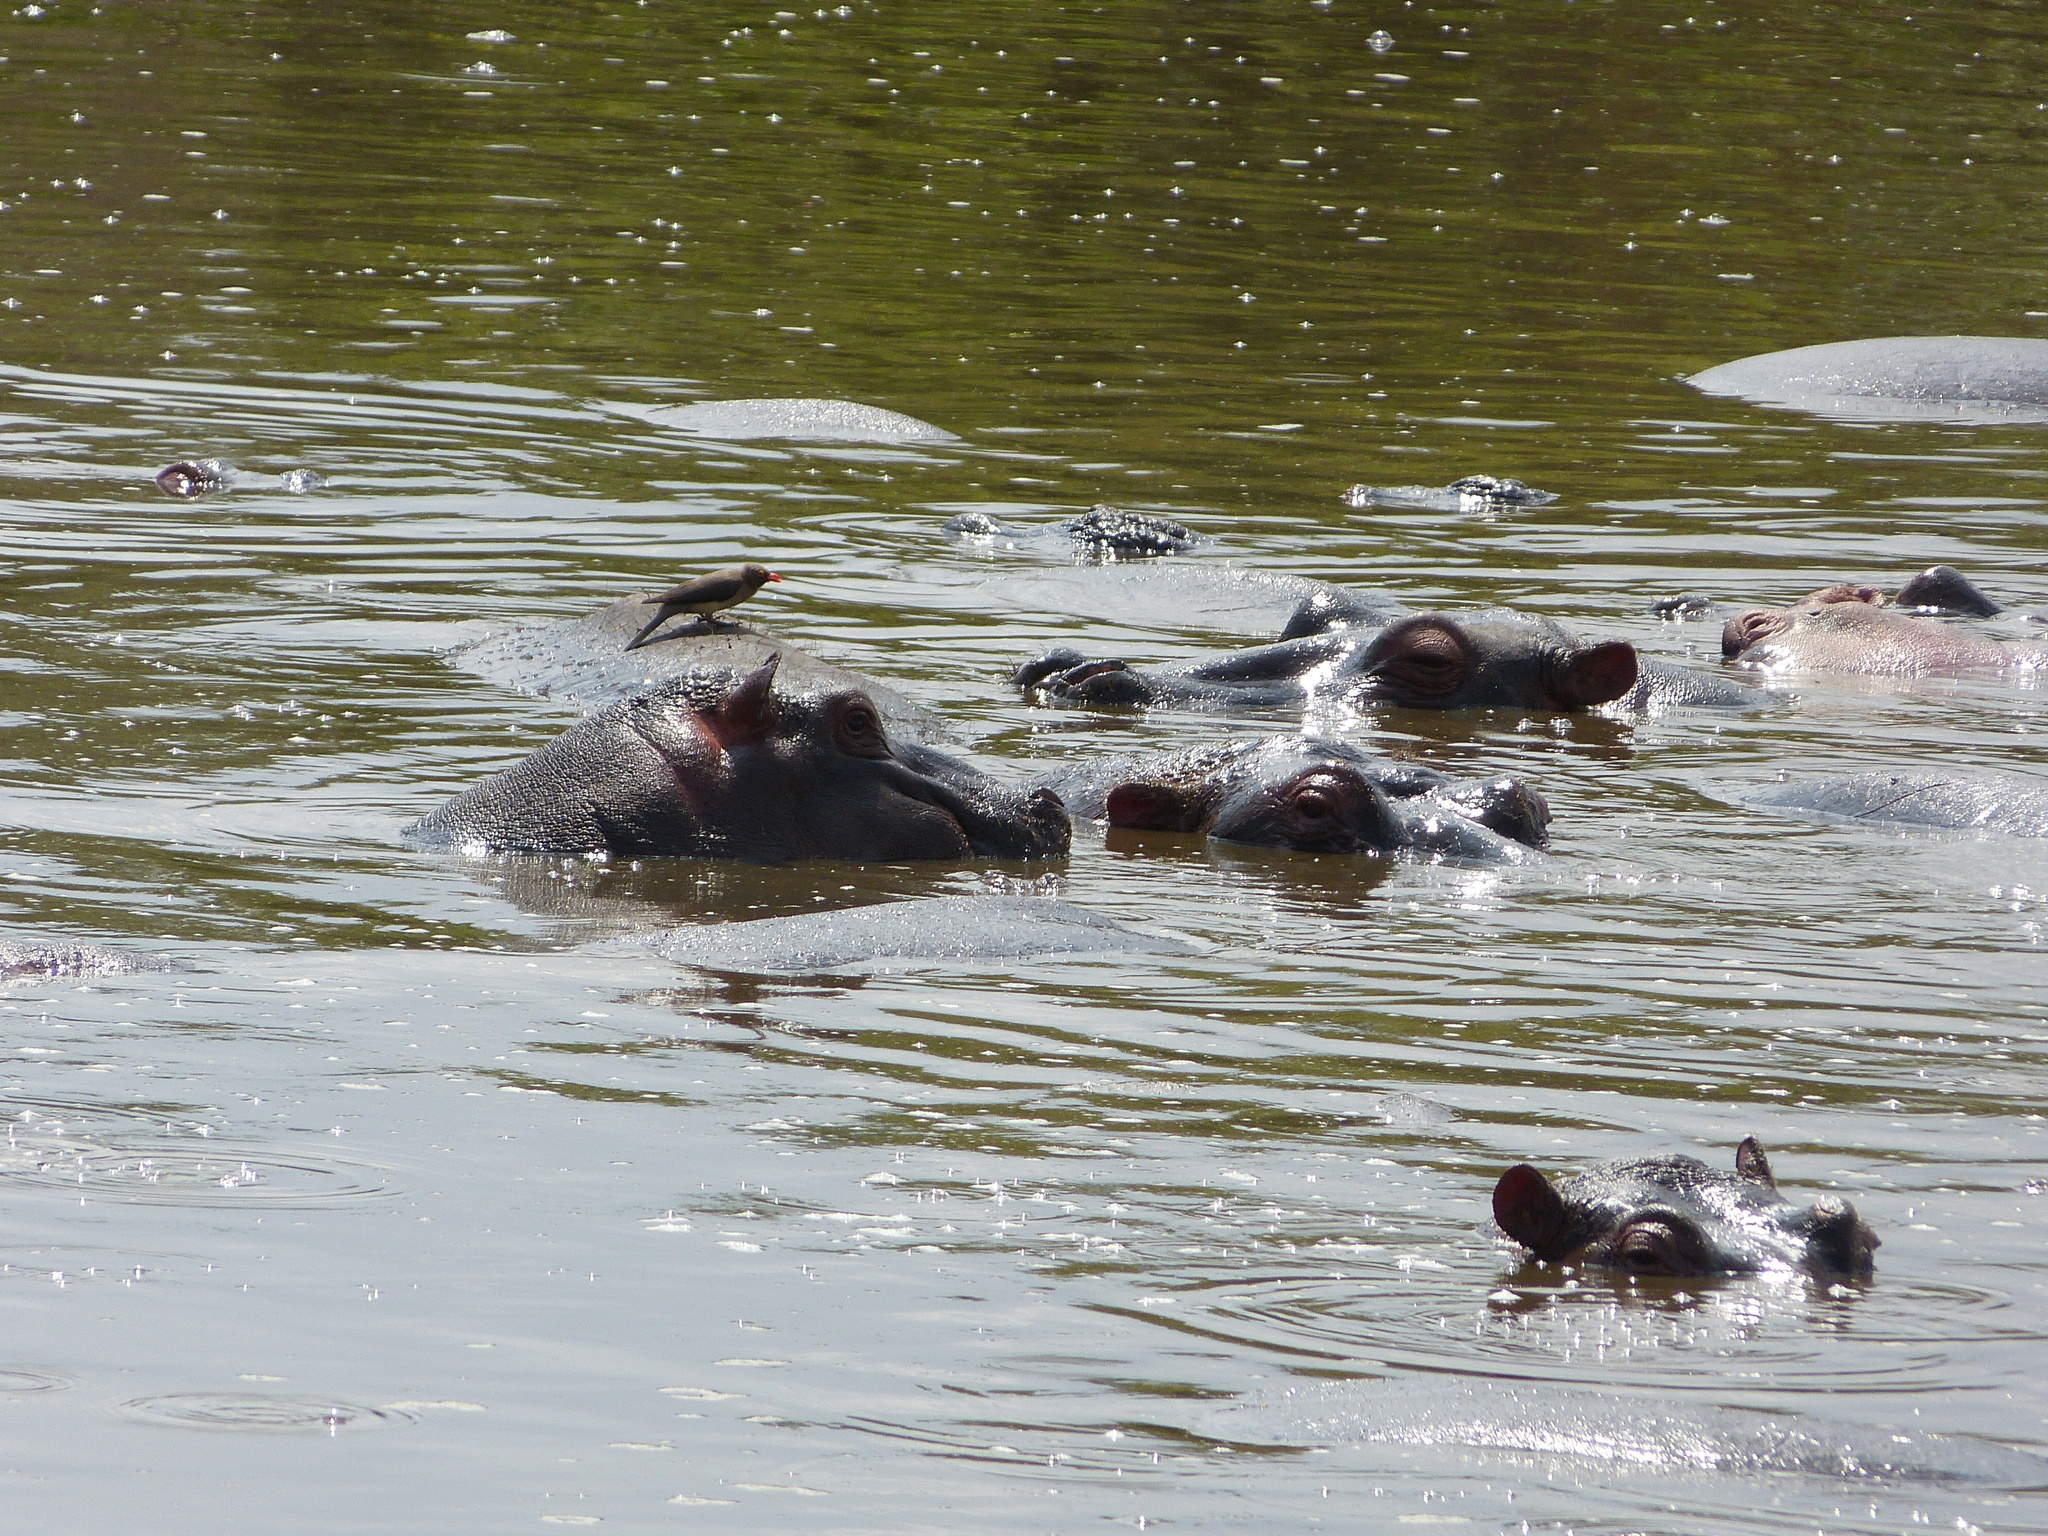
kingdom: Animalia
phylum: Chordata
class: Mammalia
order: Artiodactyla
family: Hippopotamidae
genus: Hippopotamus
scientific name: Hippopotamus amphibius
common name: Common hippopotamus
